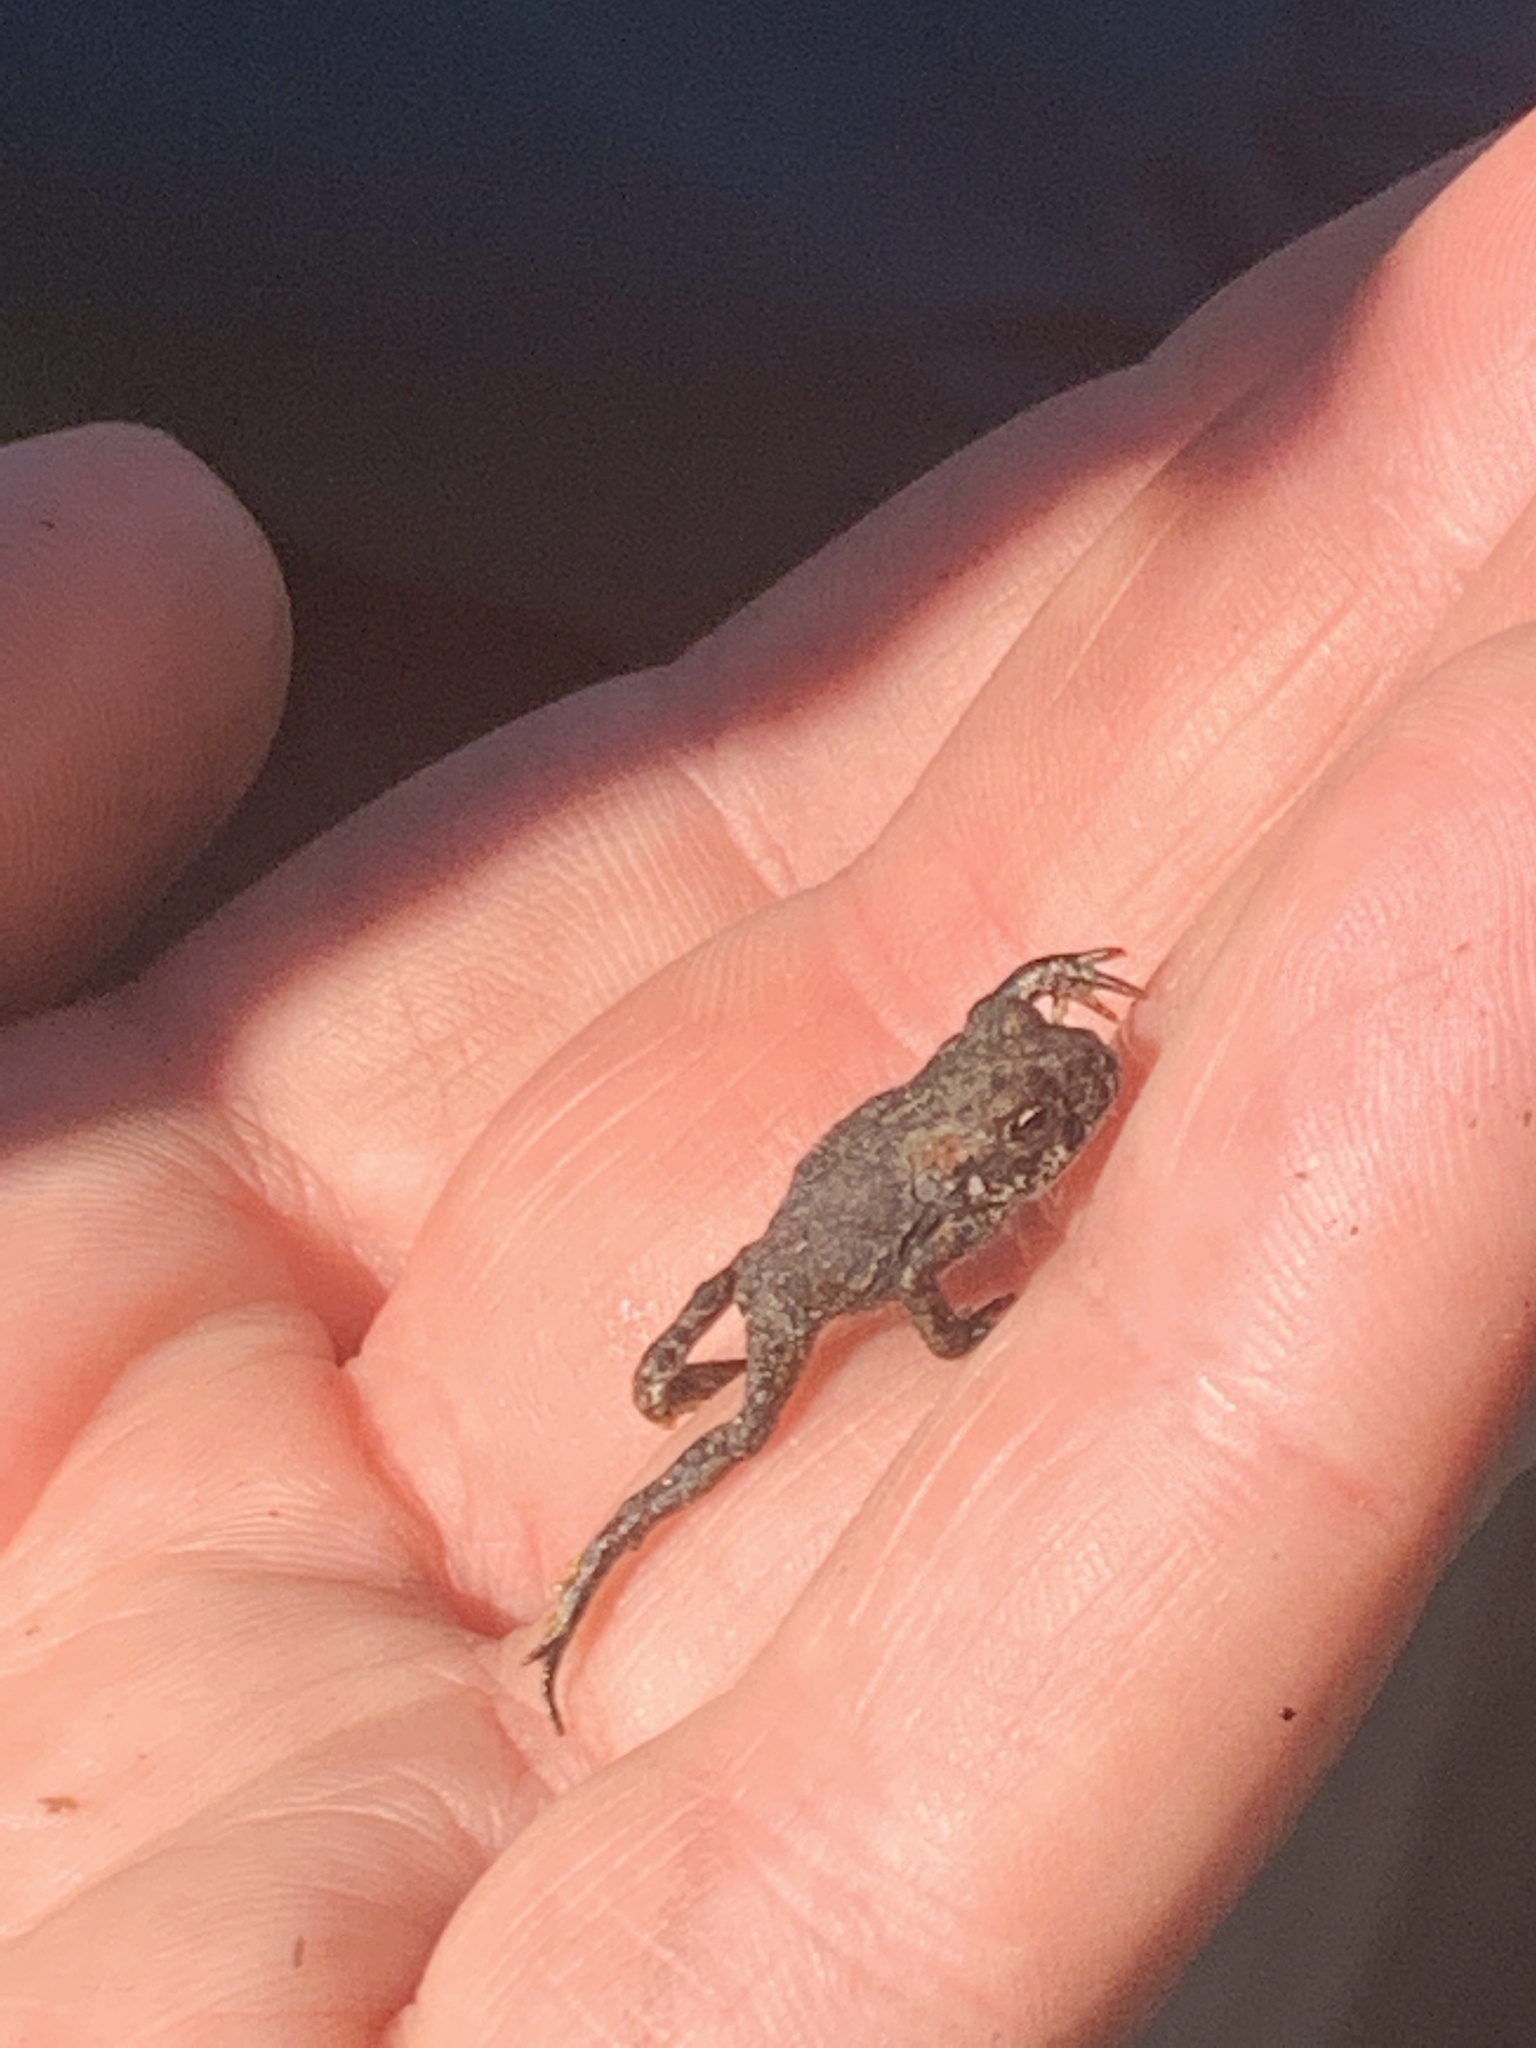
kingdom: Animalia
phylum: Chordata
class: Amphibia
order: Anura
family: Bufonidae
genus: Anaxyrus
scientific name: Anaxyrus boreas
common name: Western toad
